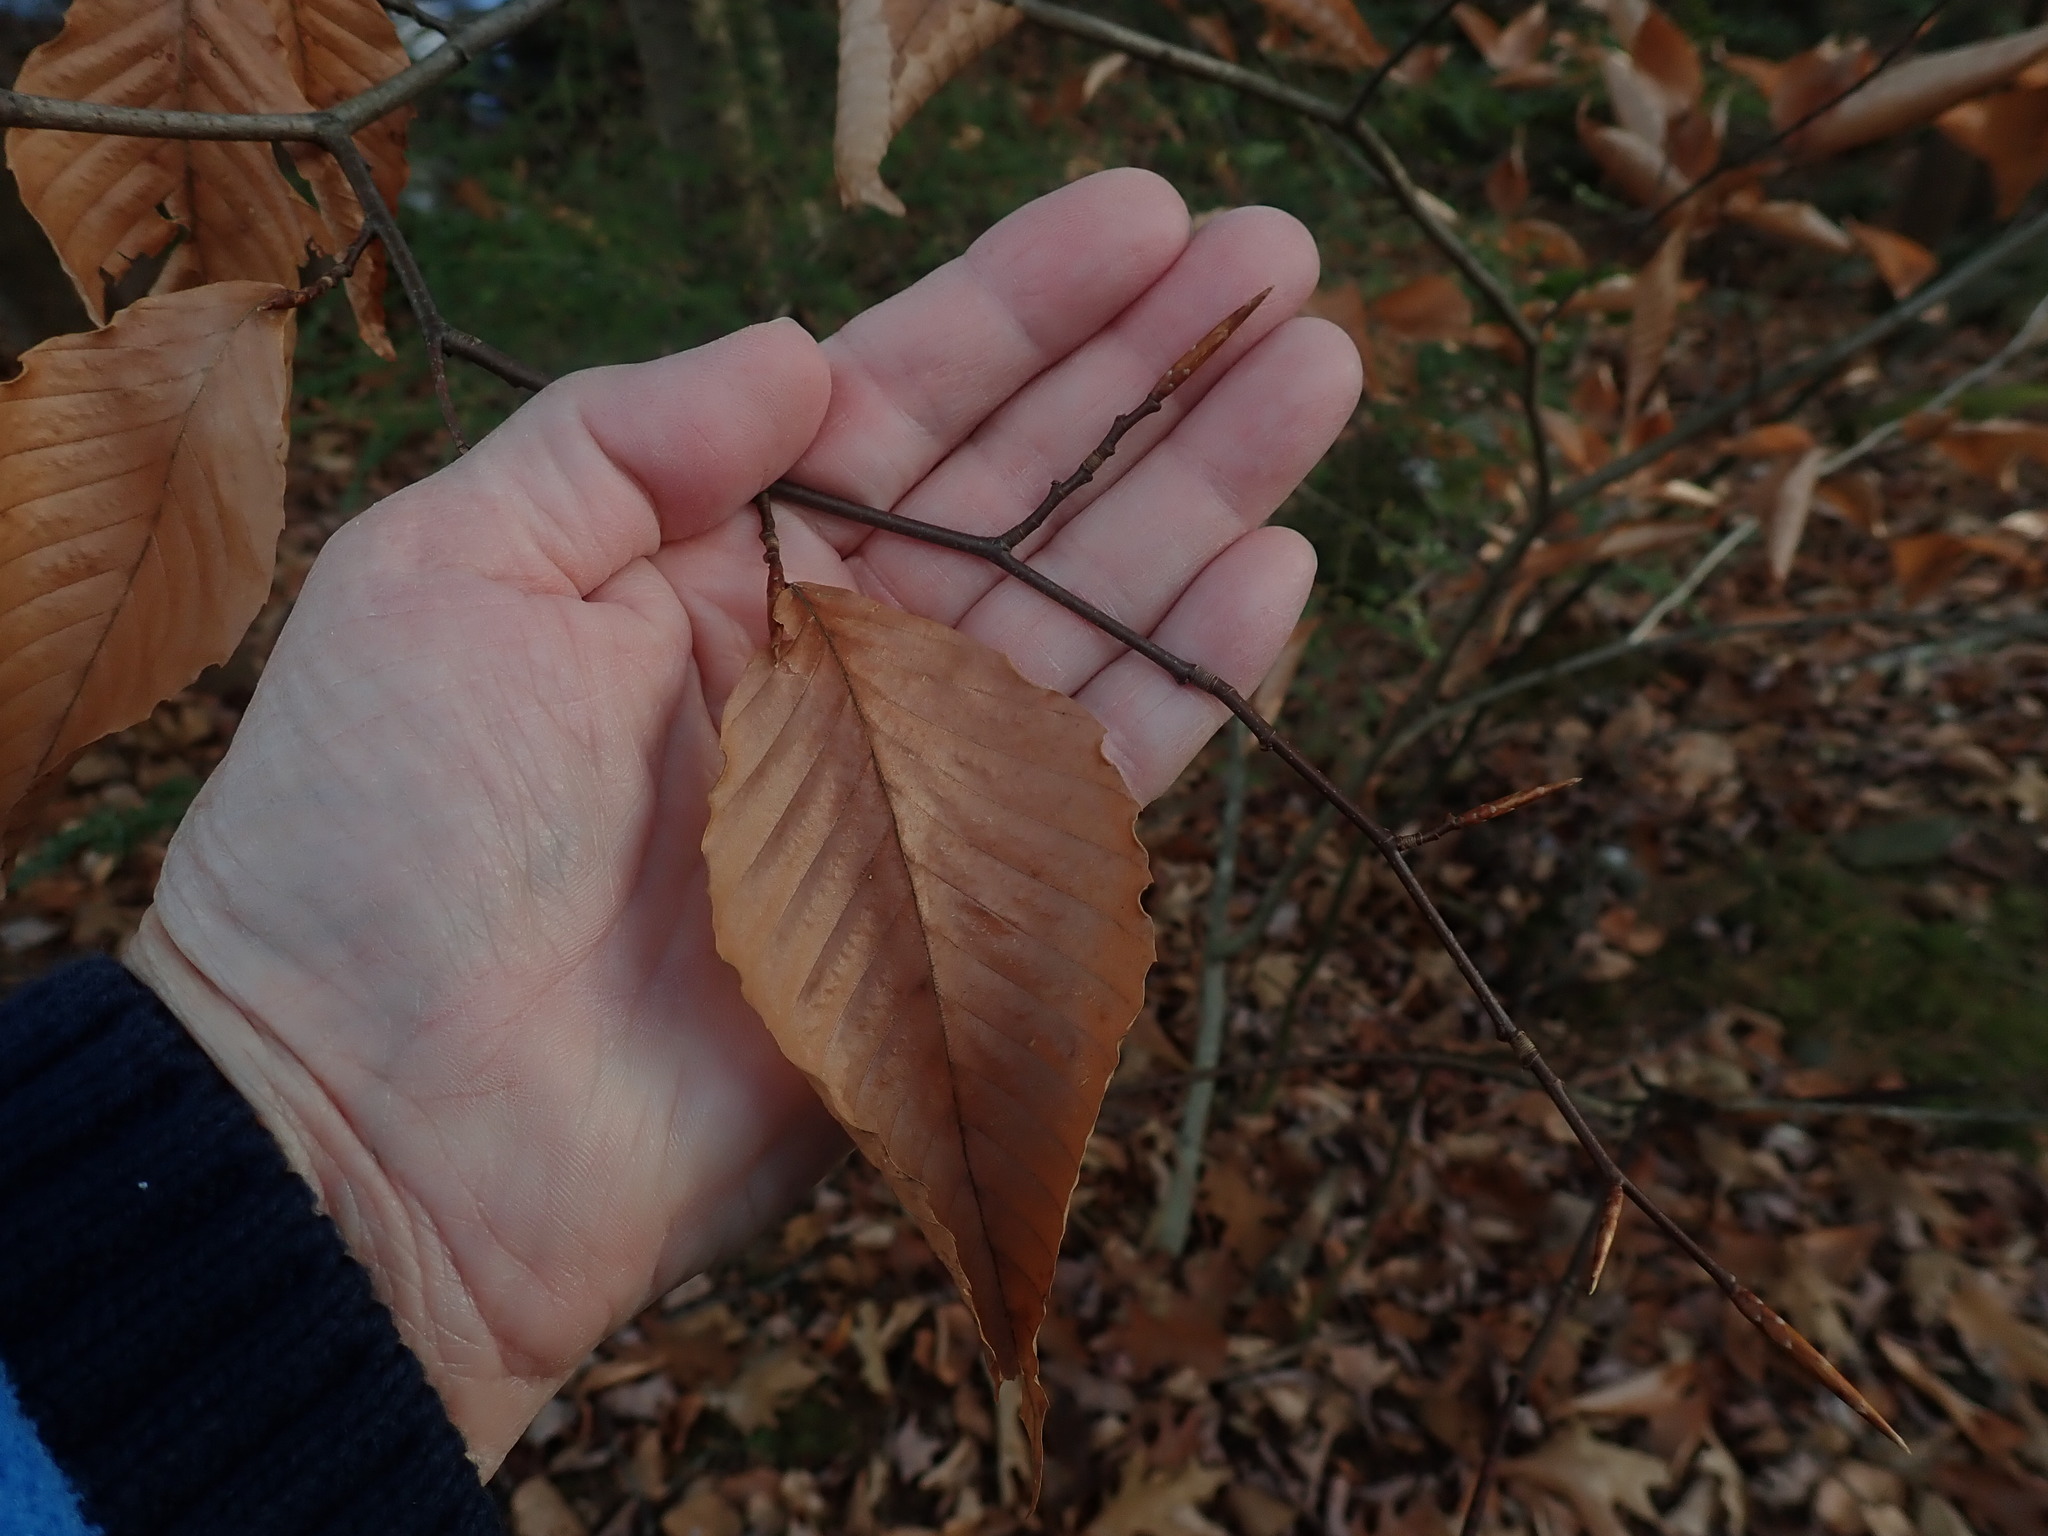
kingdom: Plantae
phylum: Tracheophyta
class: Magnoliopsida
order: Fagales
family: Fagaceae
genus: Fagus
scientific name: Fagus grandifolia
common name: American beech
